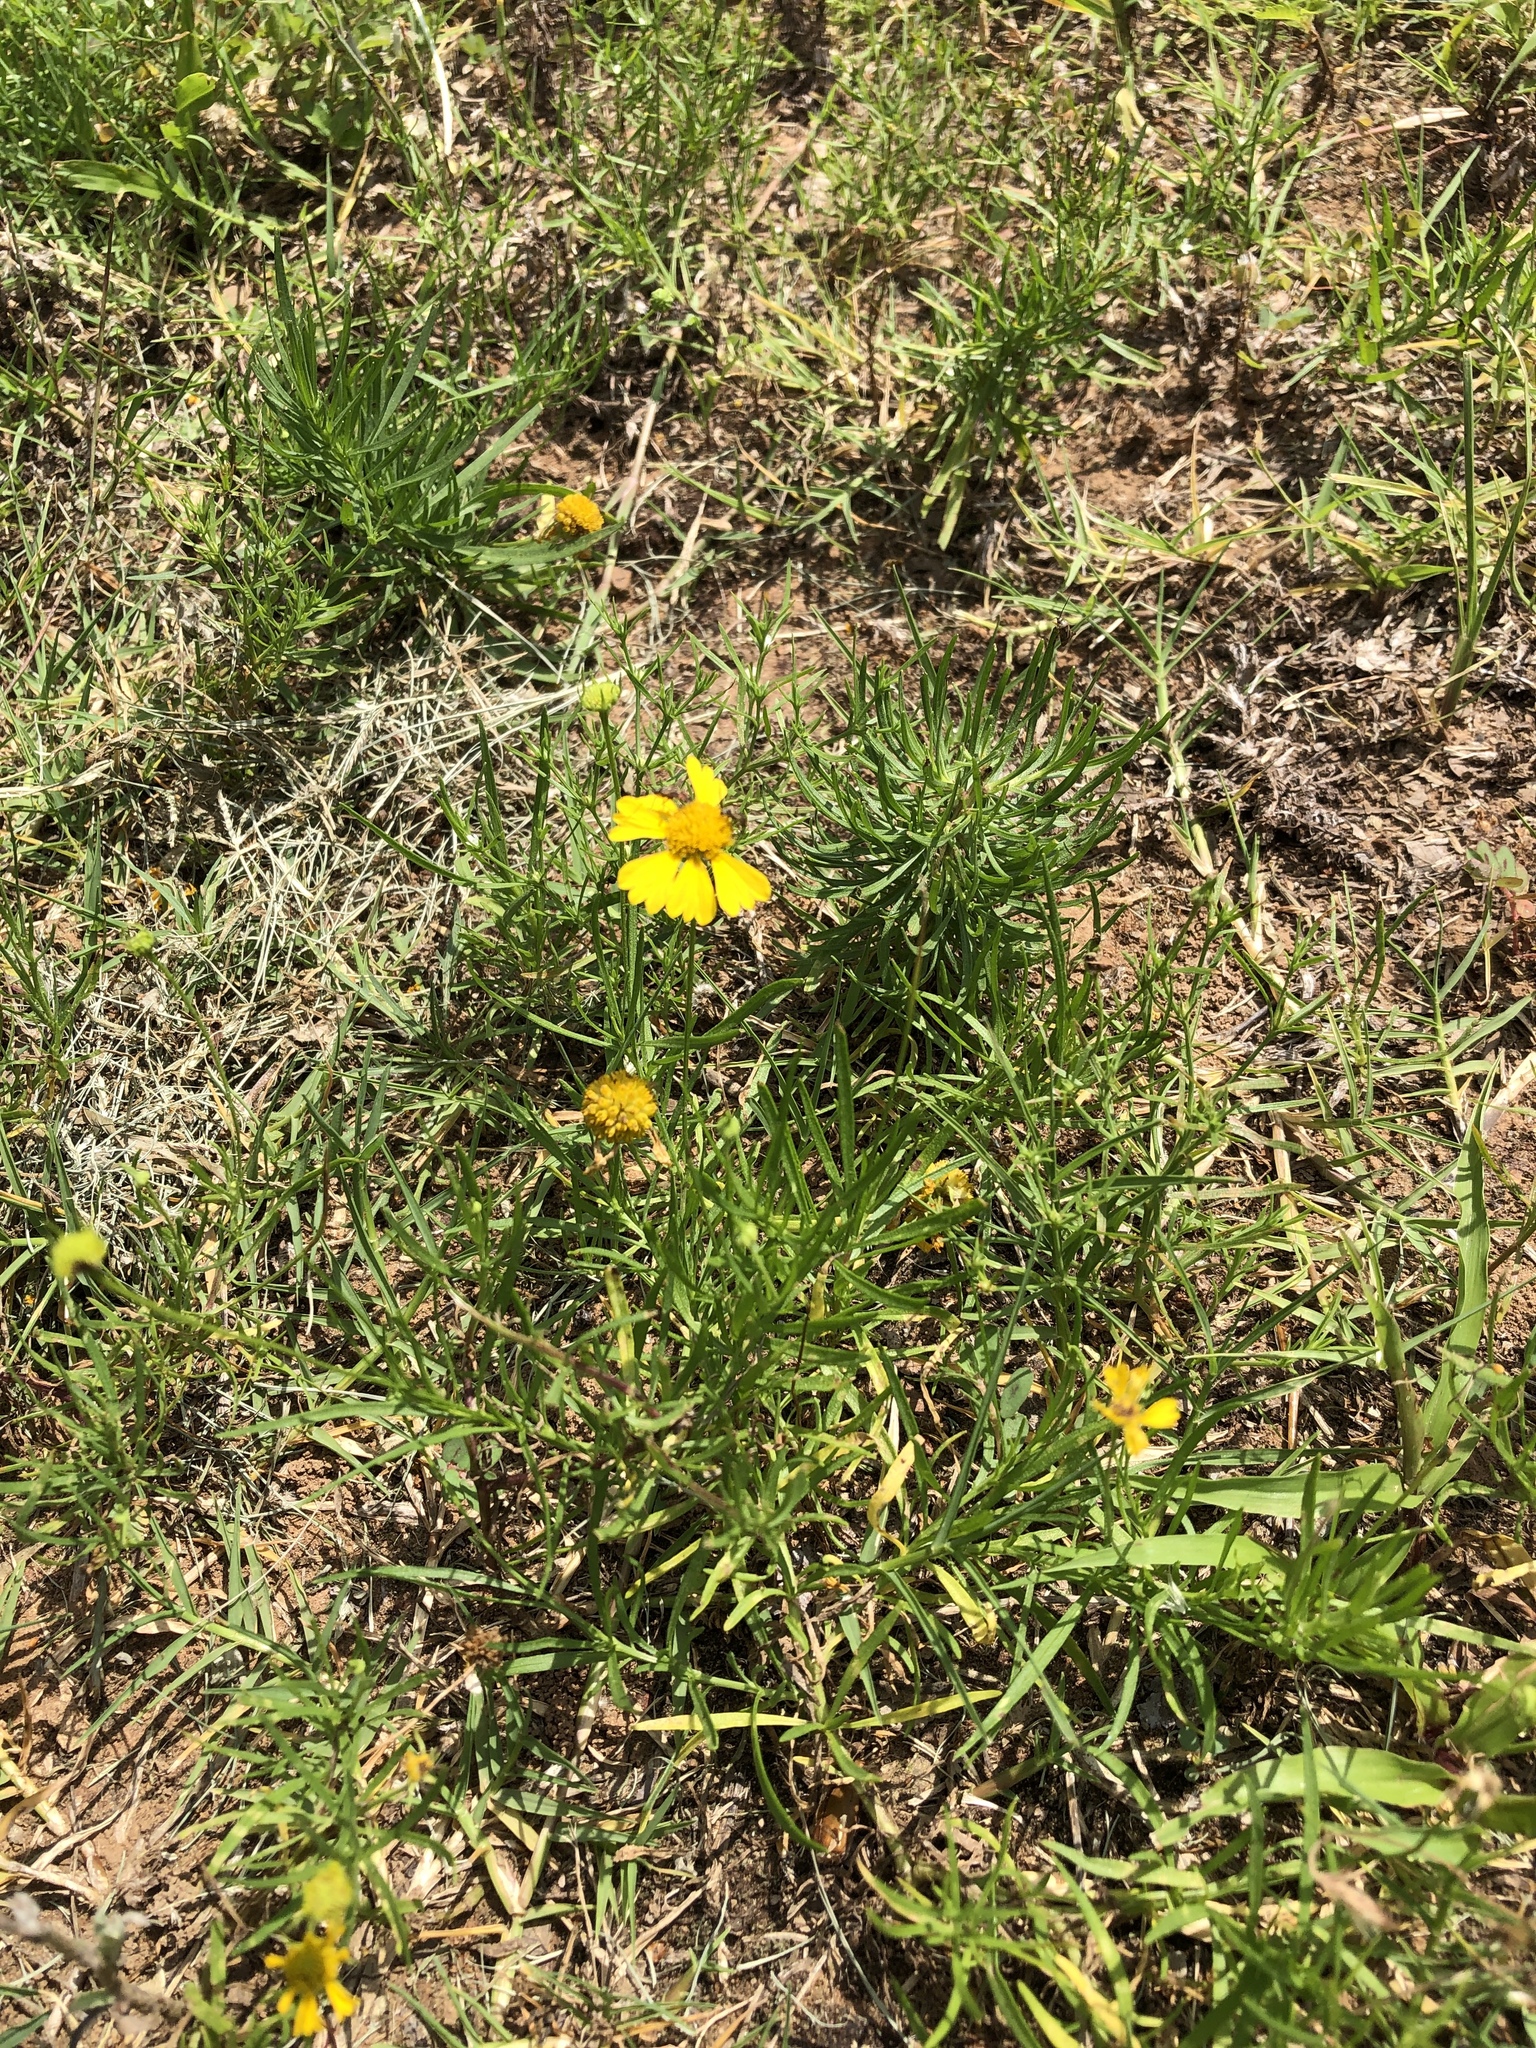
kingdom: Plantae
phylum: Tracheophyta
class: Magnoliopsida
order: Asterales
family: Asteraceae
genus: Helenium
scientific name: Helenium amarum
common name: Bitter sneezeweed
